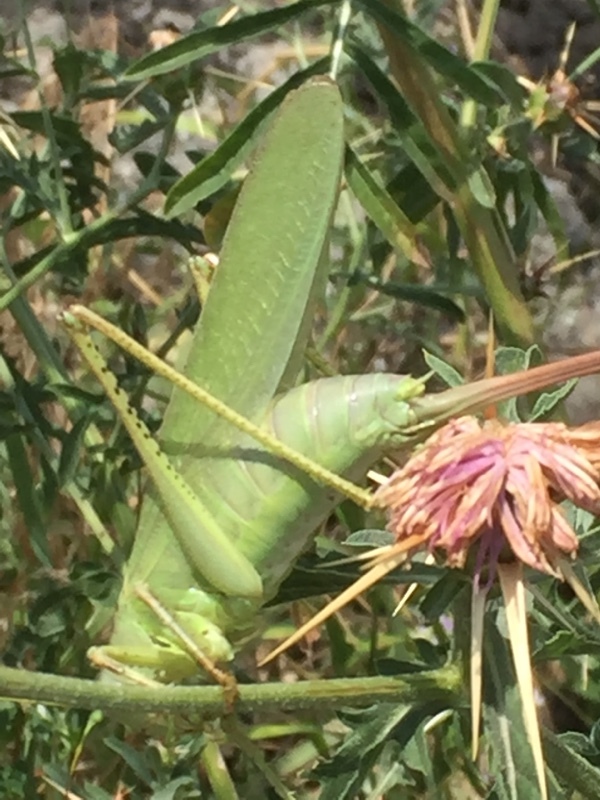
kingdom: Animalia
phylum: Arthropoda
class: Insecta
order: Orthoptera
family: Tettigoniidae
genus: Tettigonia
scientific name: Tettigonia caudata
